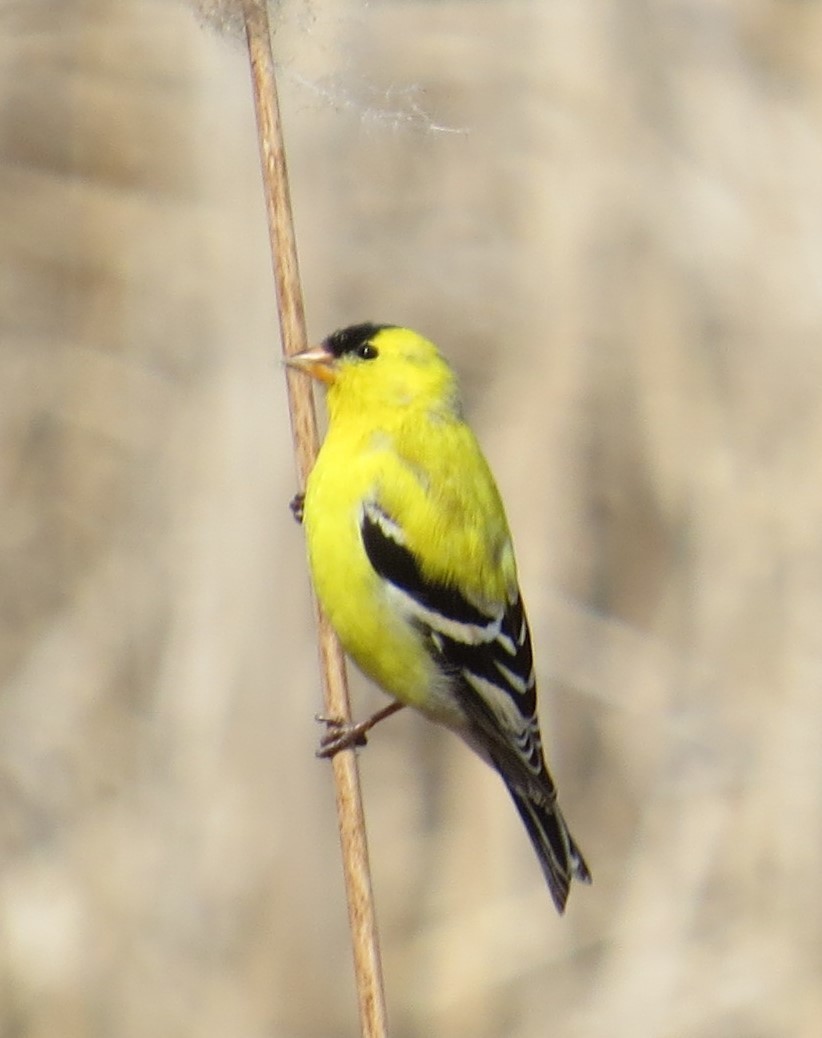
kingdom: Animalia
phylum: Chordata
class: Aves
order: Passeriformes
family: Fringillidae
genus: Spinus
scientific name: Spinus tristis
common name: American goldfinch
